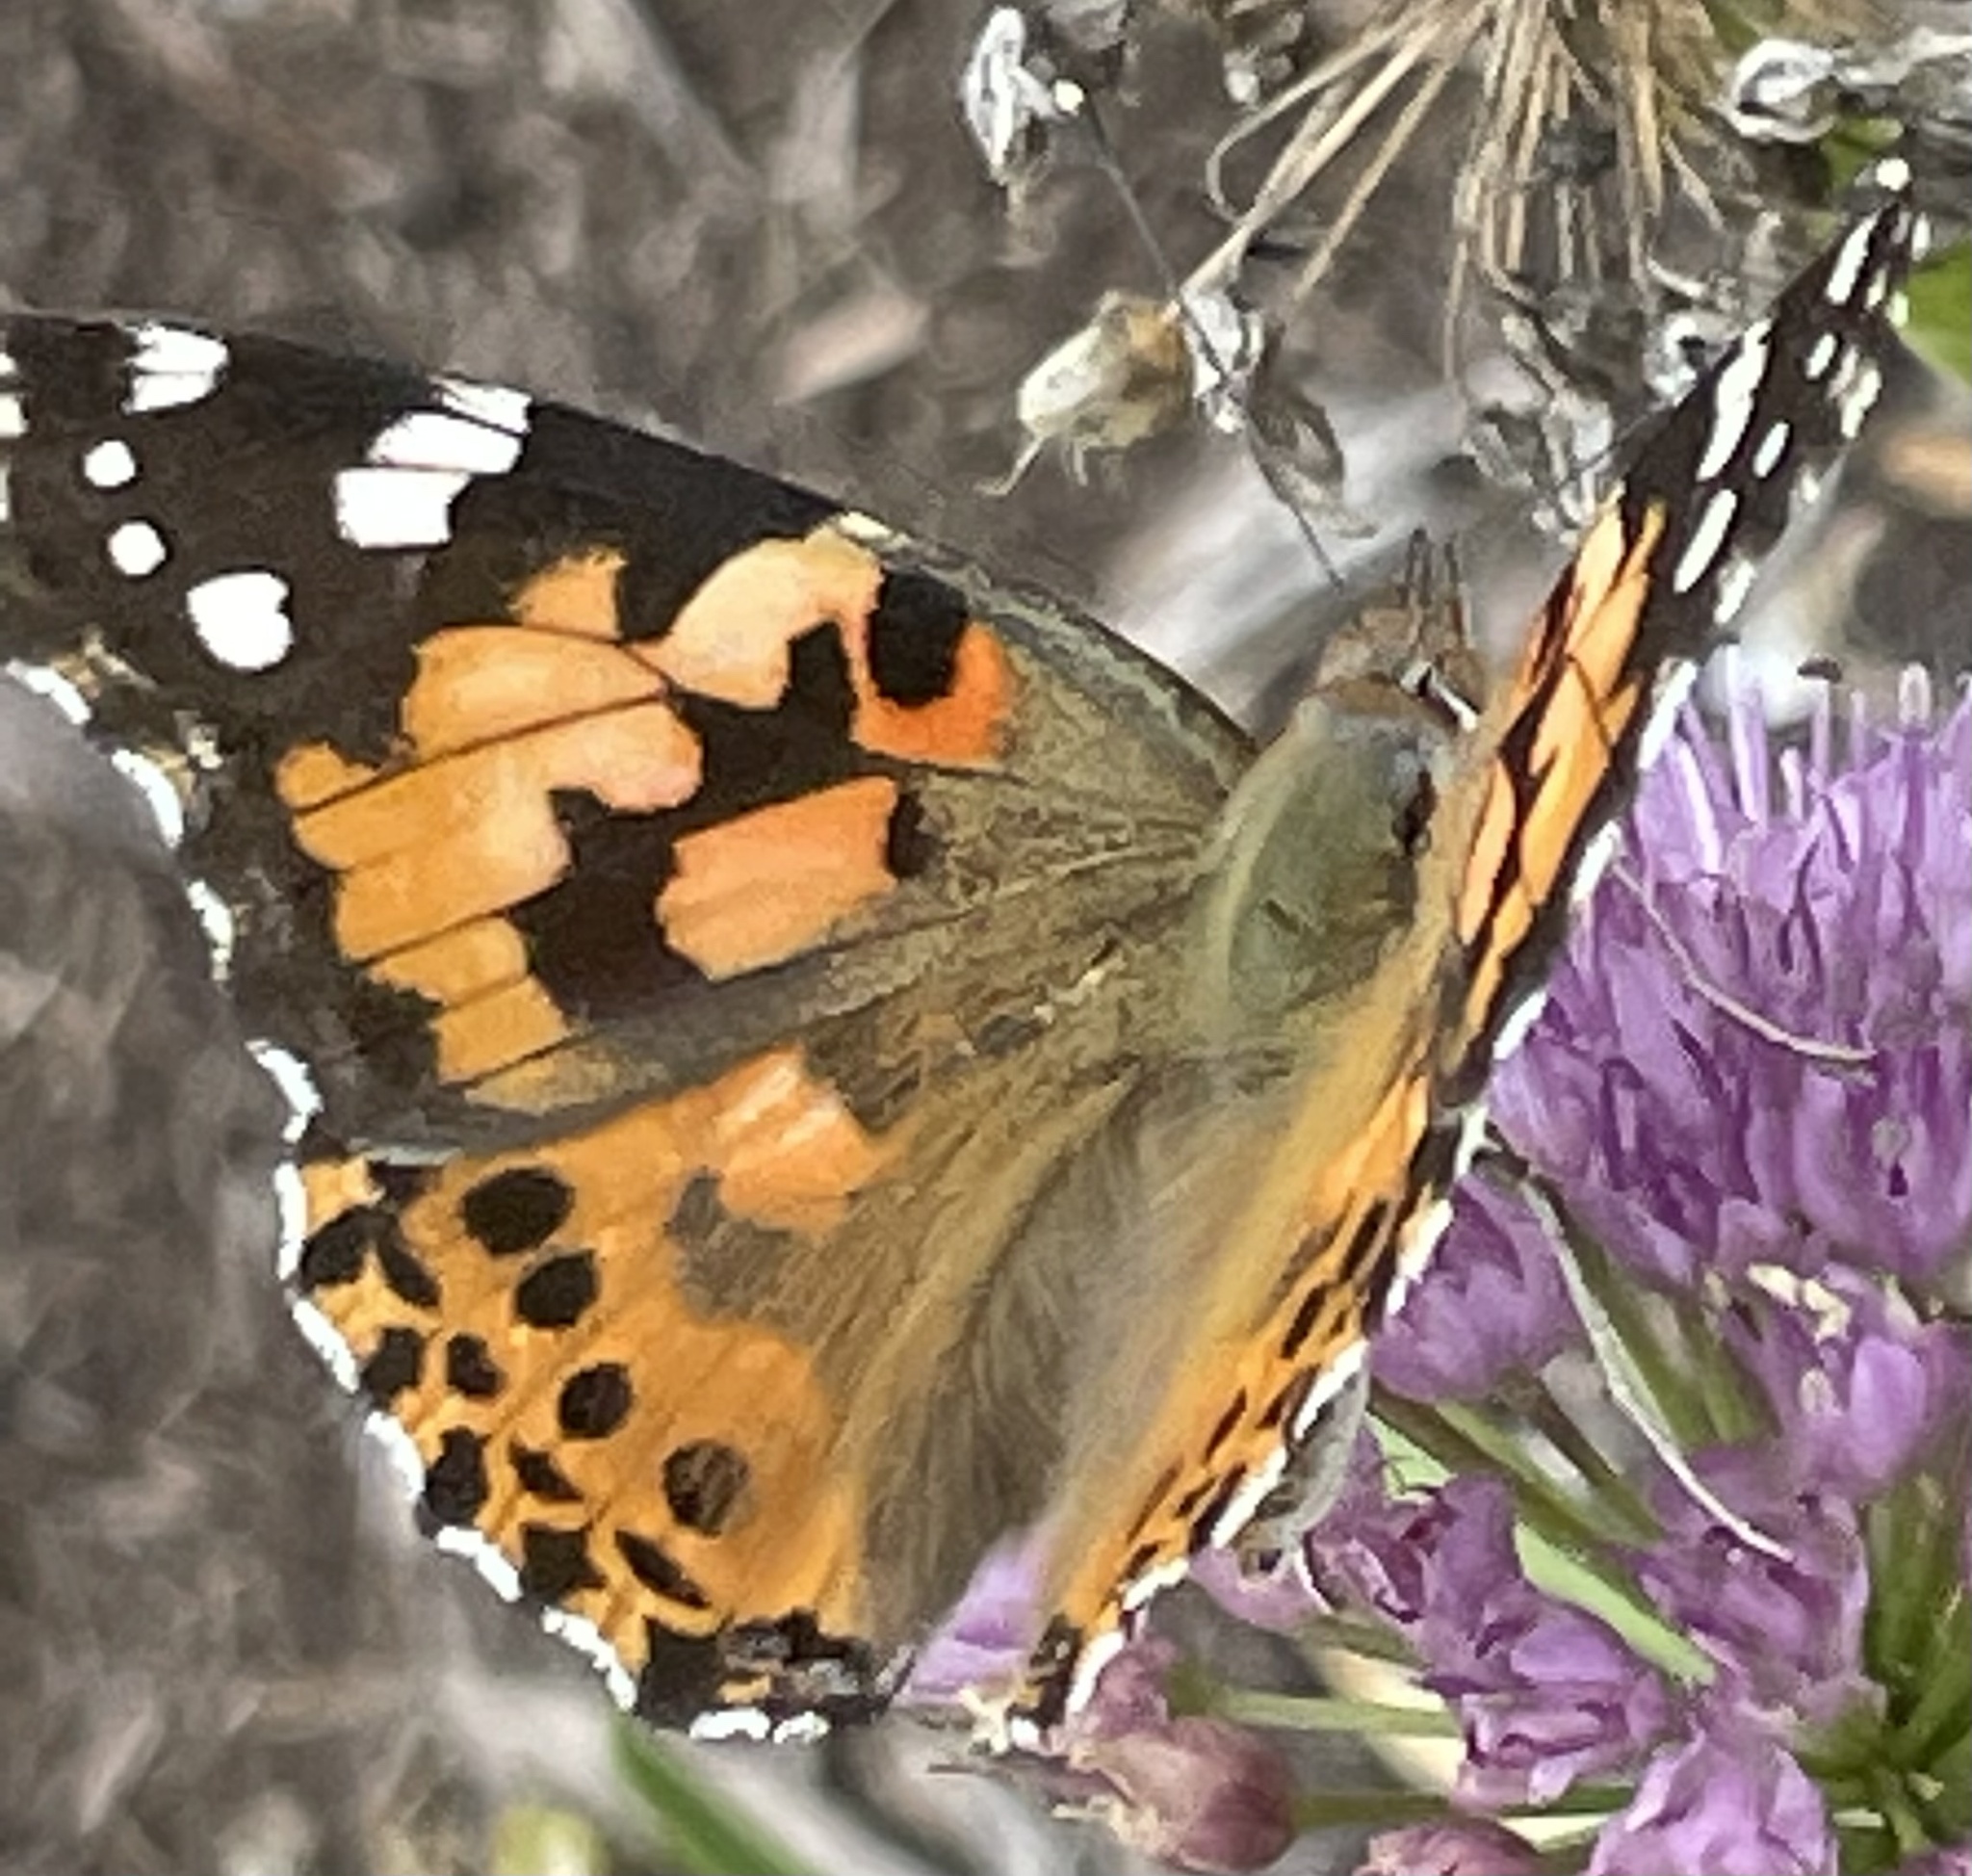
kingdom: Animalia
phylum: Arthropoda
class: Insecta
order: Lepidoptera
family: Nymphalidae
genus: Vanessa
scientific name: Vanessa cardui
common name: Painted lady
